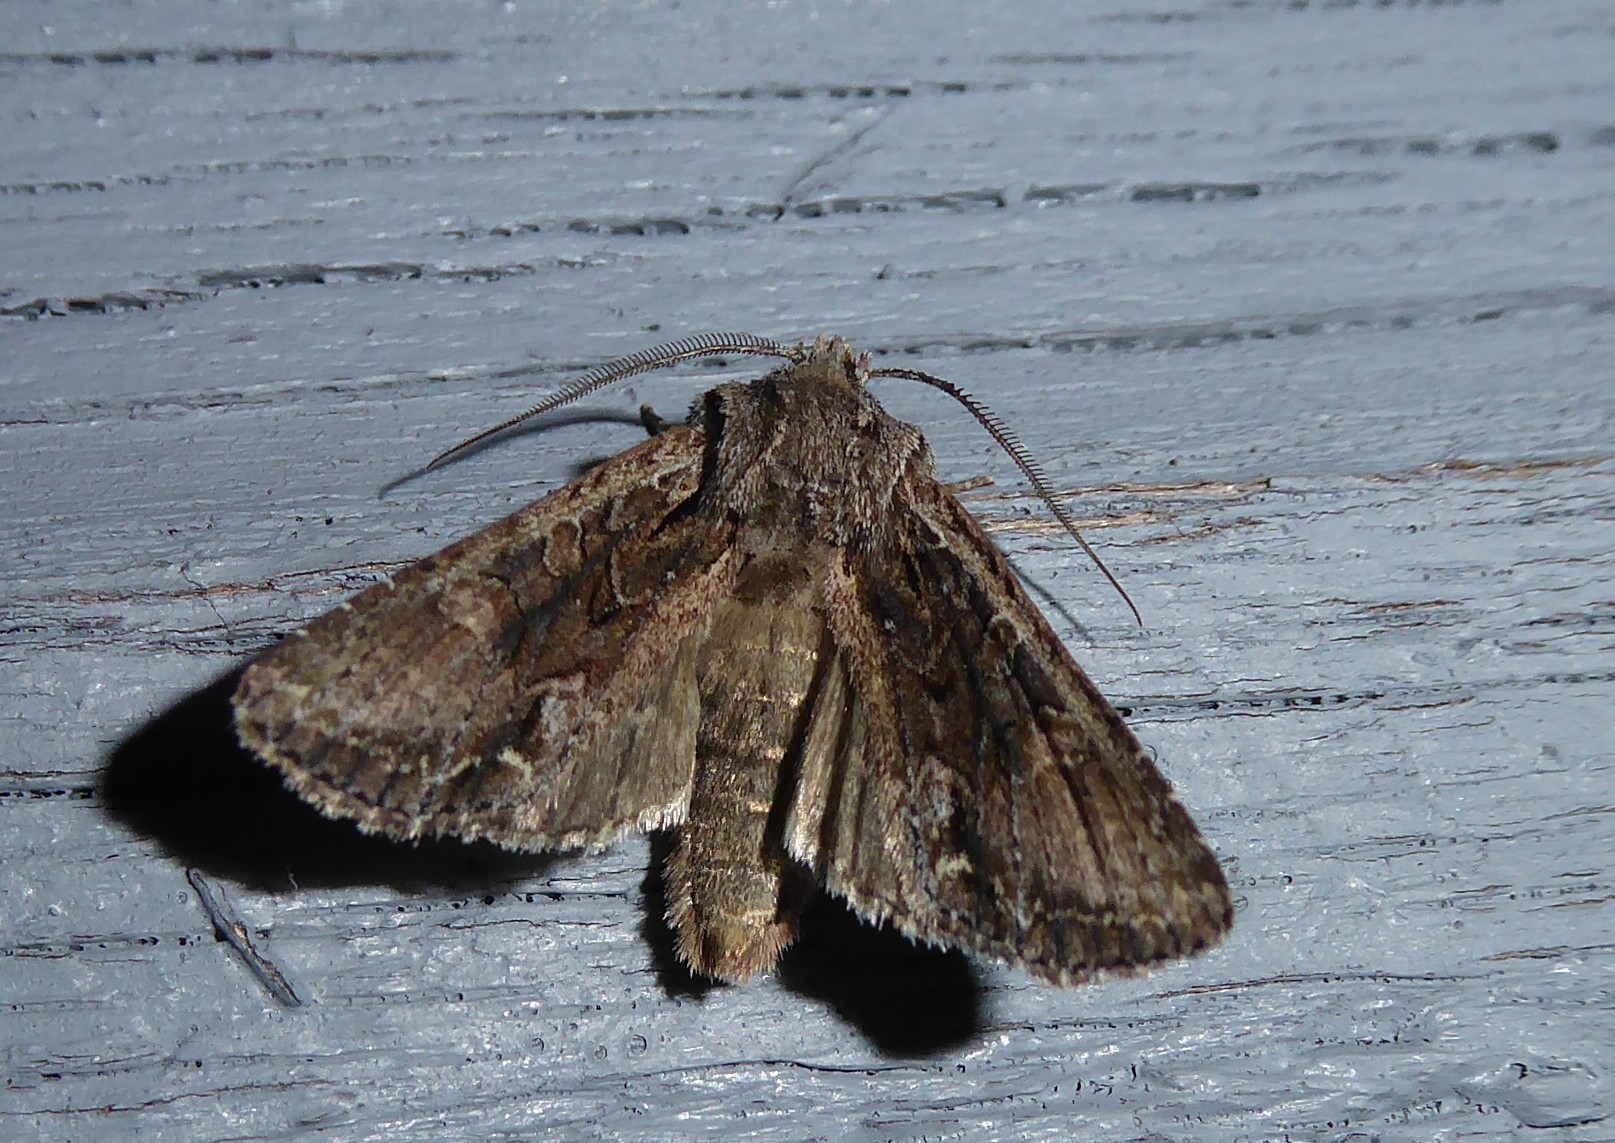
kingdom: Animalia
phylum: Arthropoda
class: Insecta
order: Lepidoptera
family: Noctuidae
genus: Ichneutica
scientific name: Ichneutica mutans
